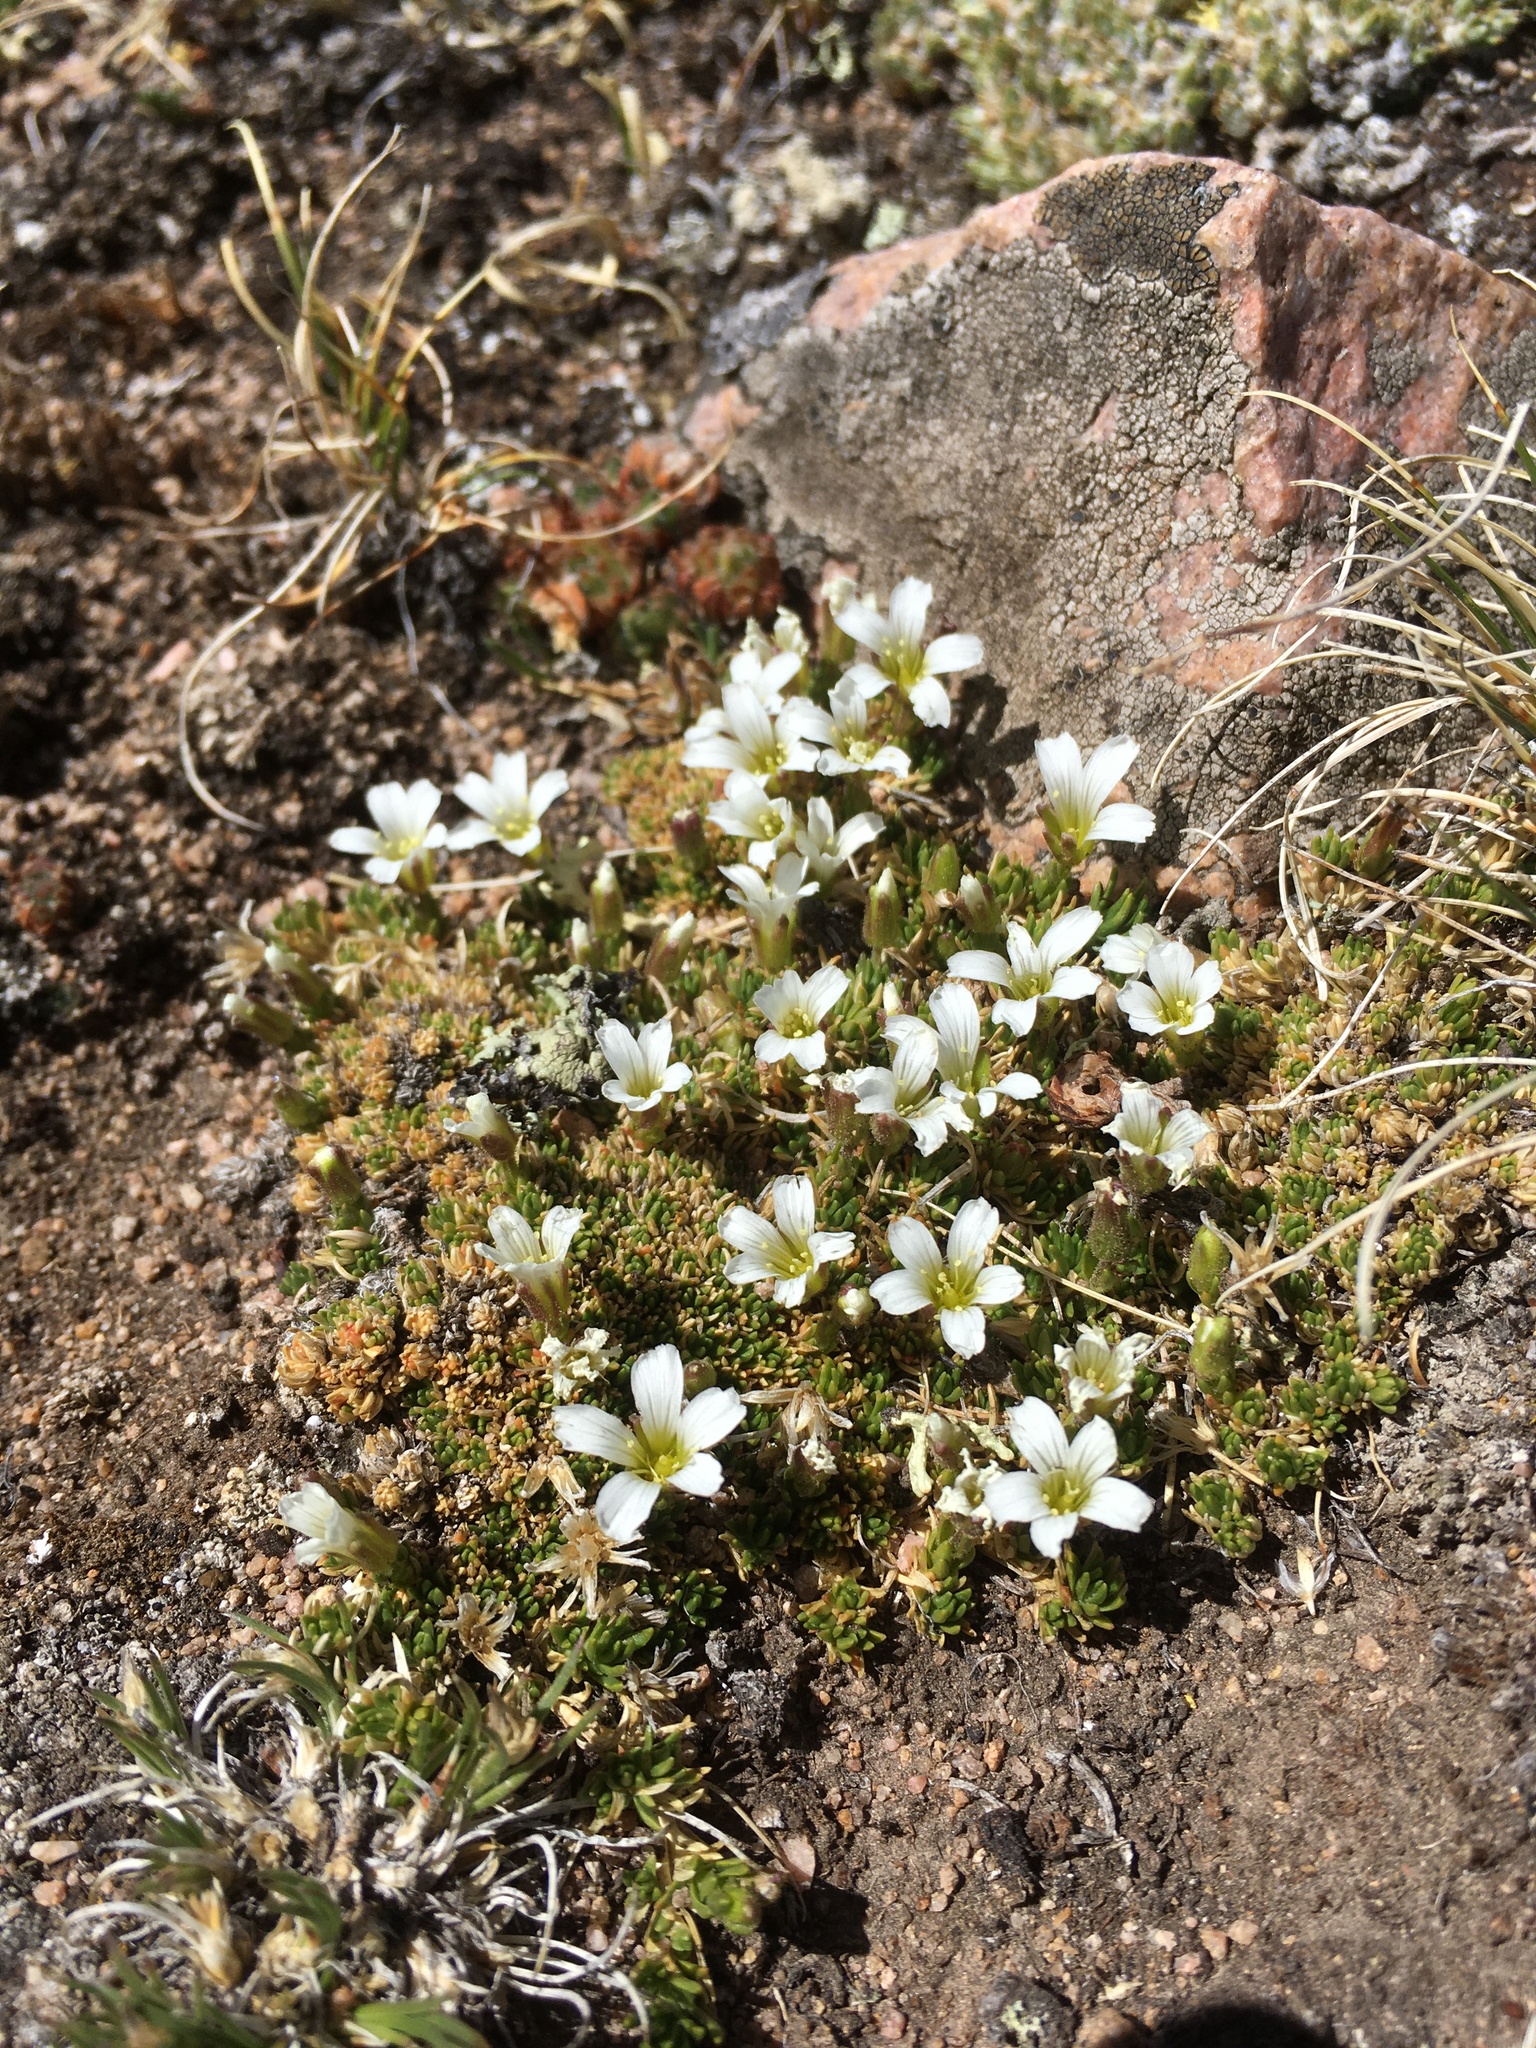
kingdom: Plantae
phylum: Tracheophyta
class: Magnoliopsida
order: Caryophyllales
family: Caryophyllaceae
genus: Cherleria
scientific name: Cherleria obtusiloba
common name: Alpine stitchwort
